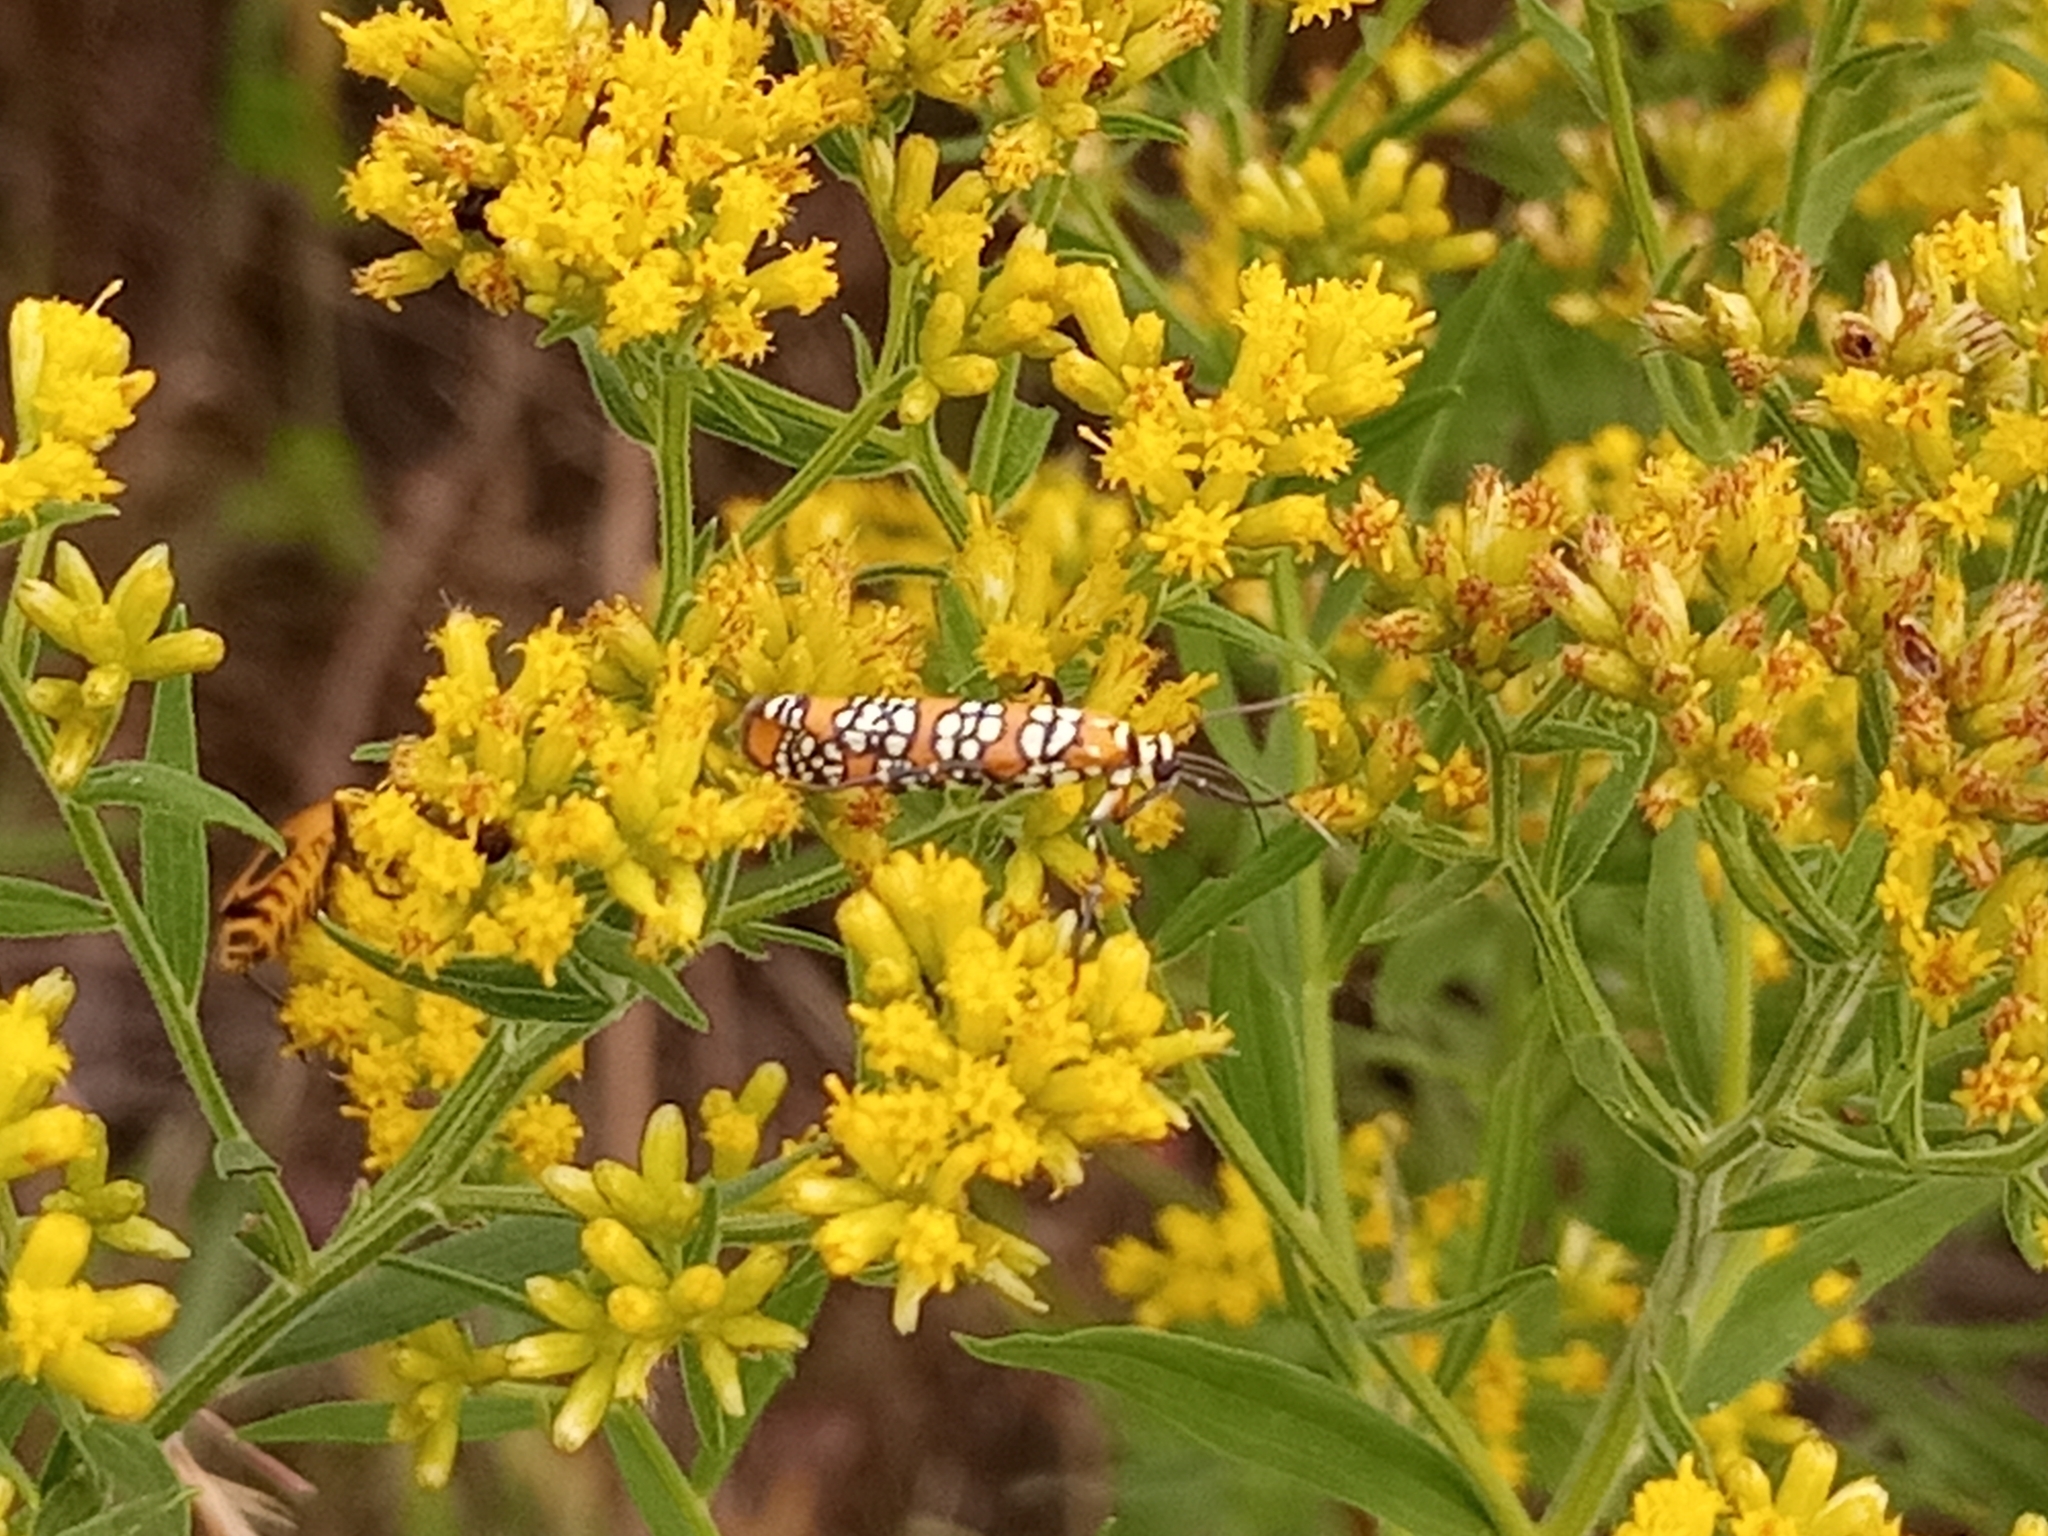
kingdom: Animalia
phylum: Arthropoda
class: Insecta
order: Lepidoptera
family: Attevidae
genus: Atteva
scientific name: Atteva punctella
